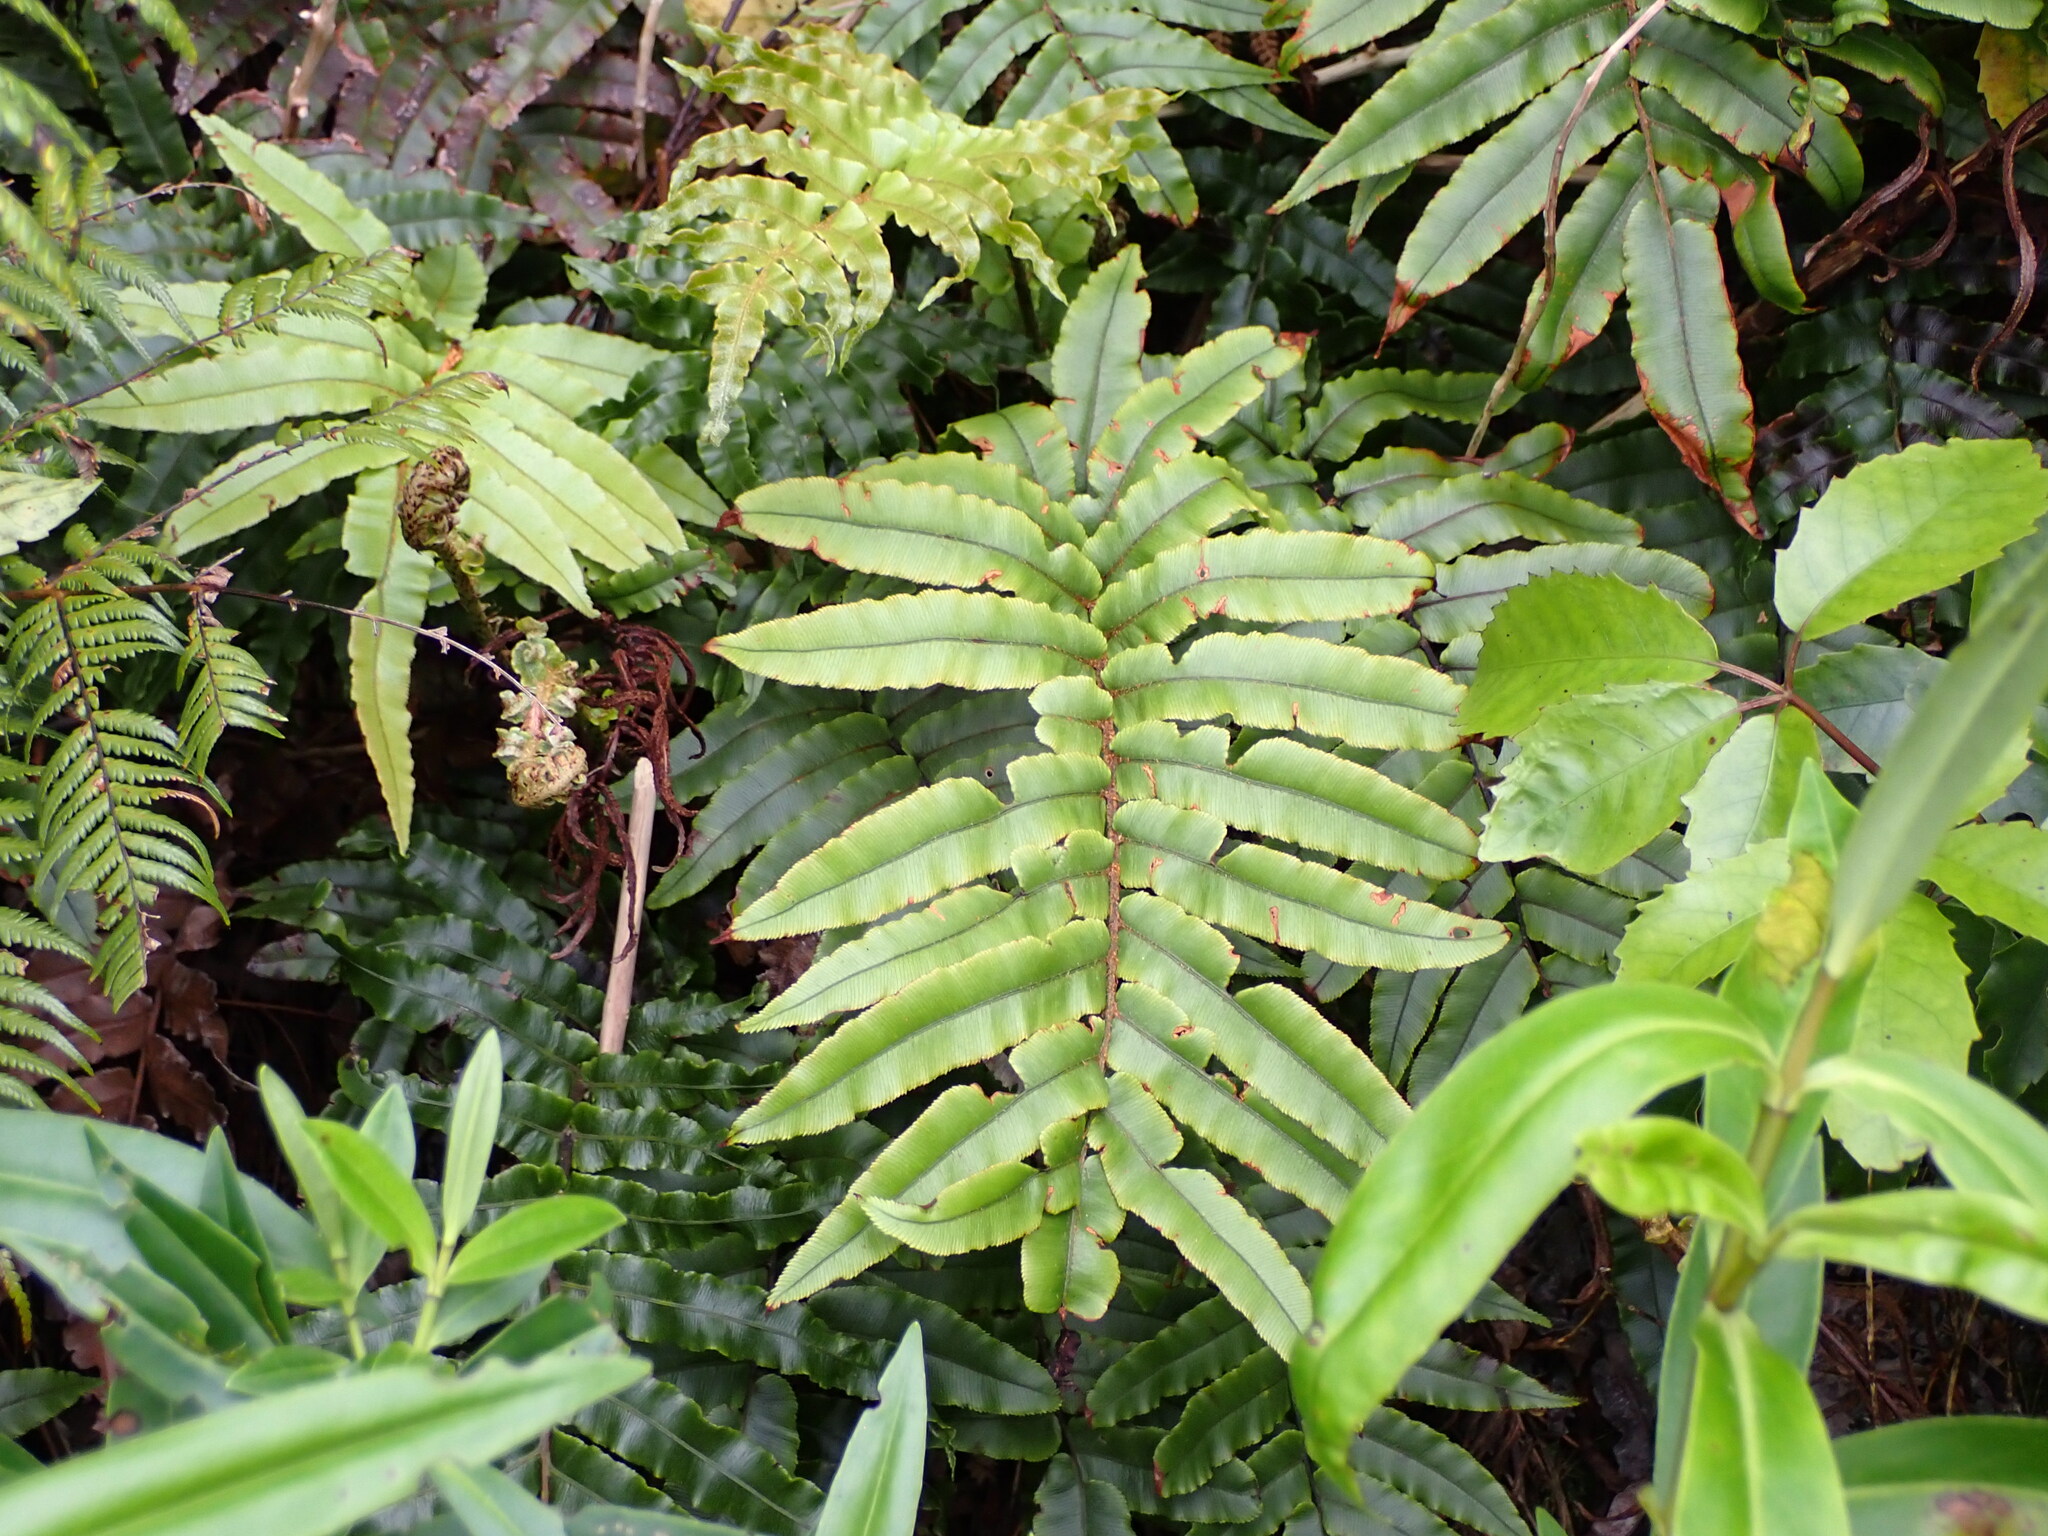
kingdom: Plantae
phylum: Tracheophyta
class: Polypodiopsida
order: Polypodiales
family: Blechnaceae
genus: Parablechnum
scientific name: Parablechnum procerum
